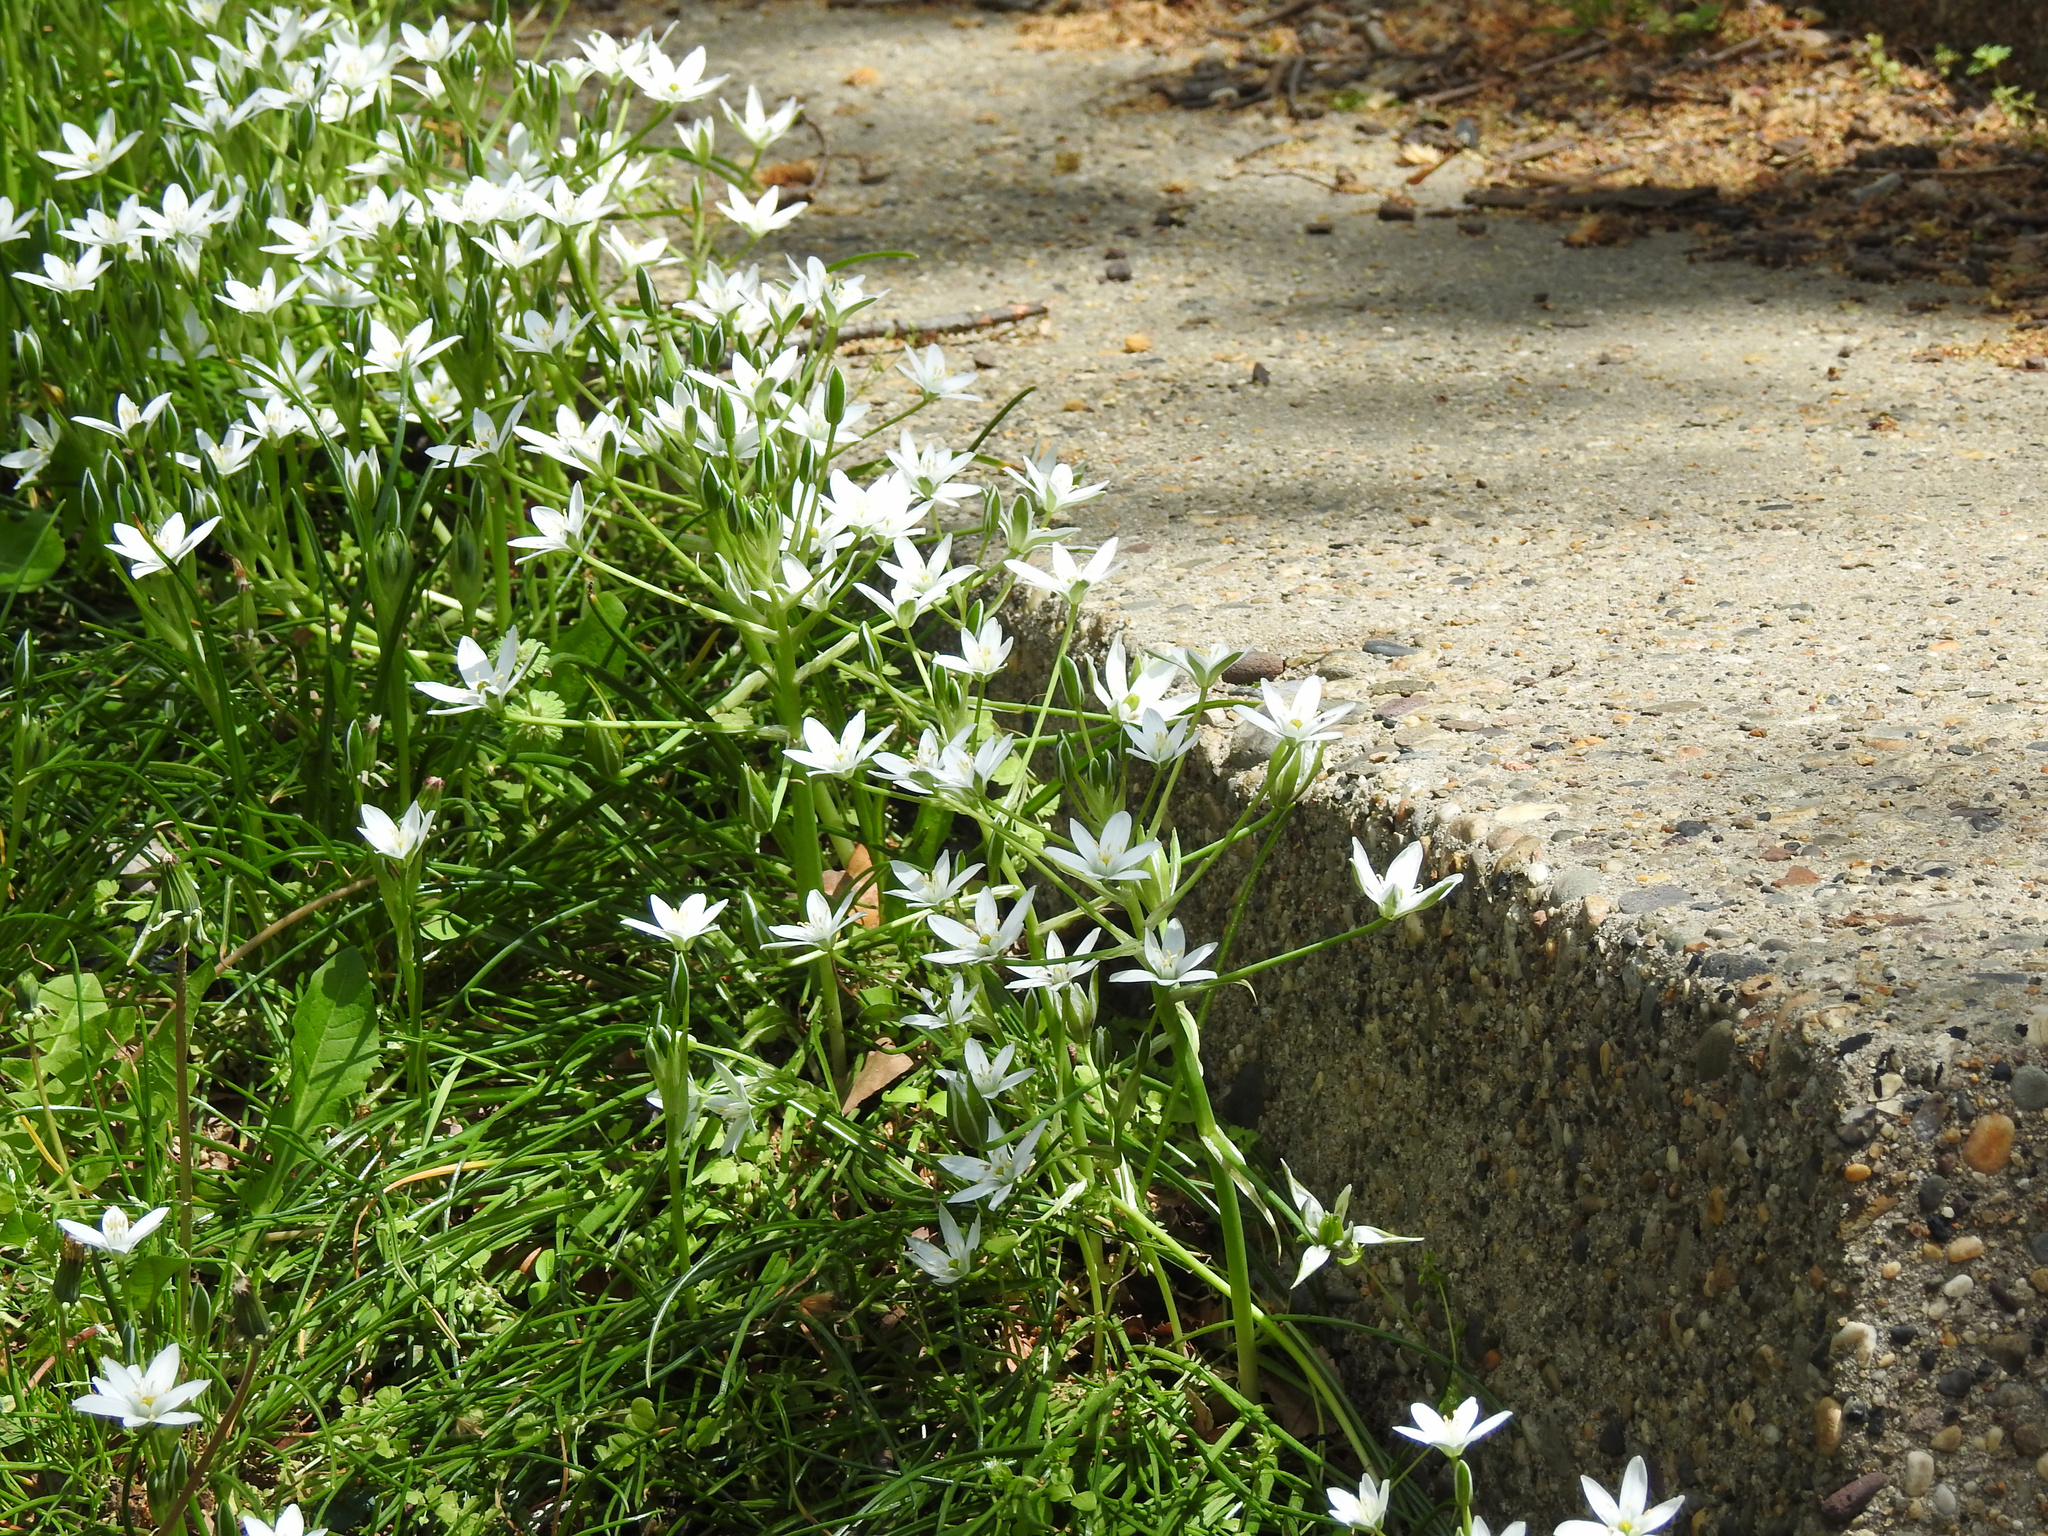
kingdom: Plantae
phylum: Tracheophyta
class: Liliopsida
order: Asparagales
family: Asparagaceae
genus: Ornithogalum
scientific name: Ornithogalum umbellatum
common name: Garden star-of-bethlehem
